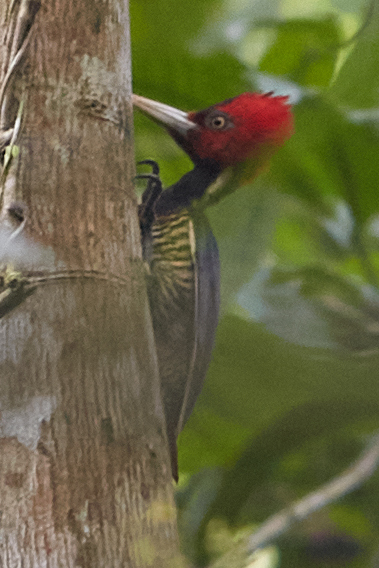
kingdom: Animalia
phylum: Chordata
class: Aves
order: Piciformes
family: Picidae
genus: Campephilus
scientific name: Campephilus guatemalensis
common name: Pale-billed woodpecker
